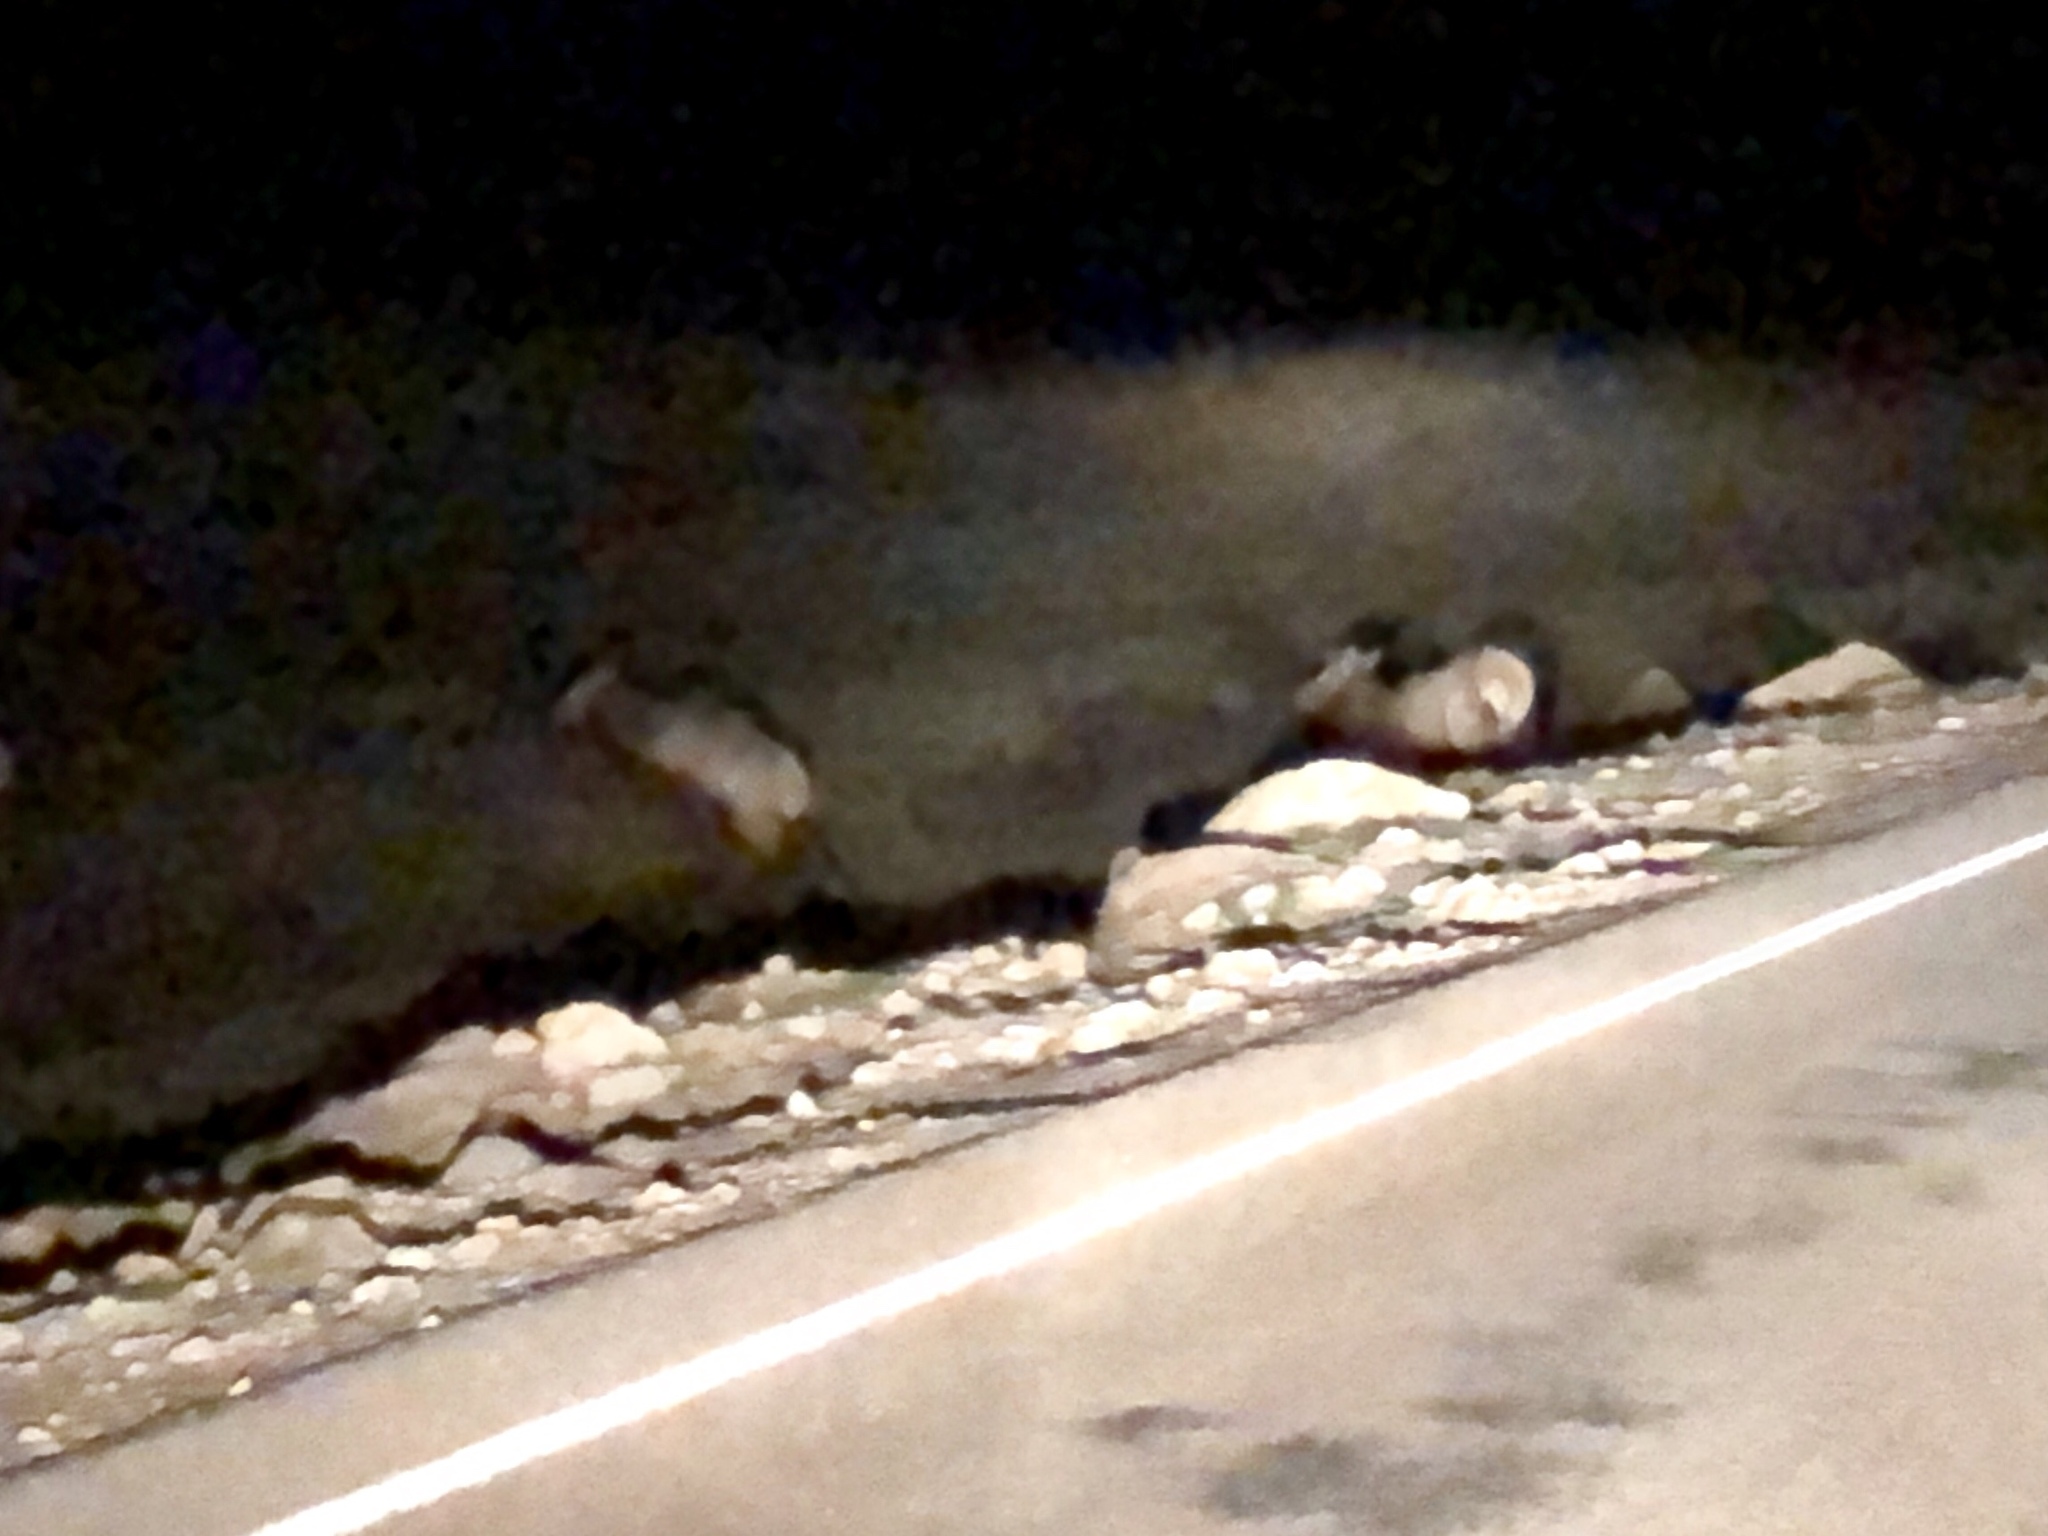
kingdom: Animalia
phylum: Chordata
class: Mammalia
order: Artiodactyla
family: Cervidae
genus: Cervus
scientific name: Cervus elaphus
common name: Red deer
